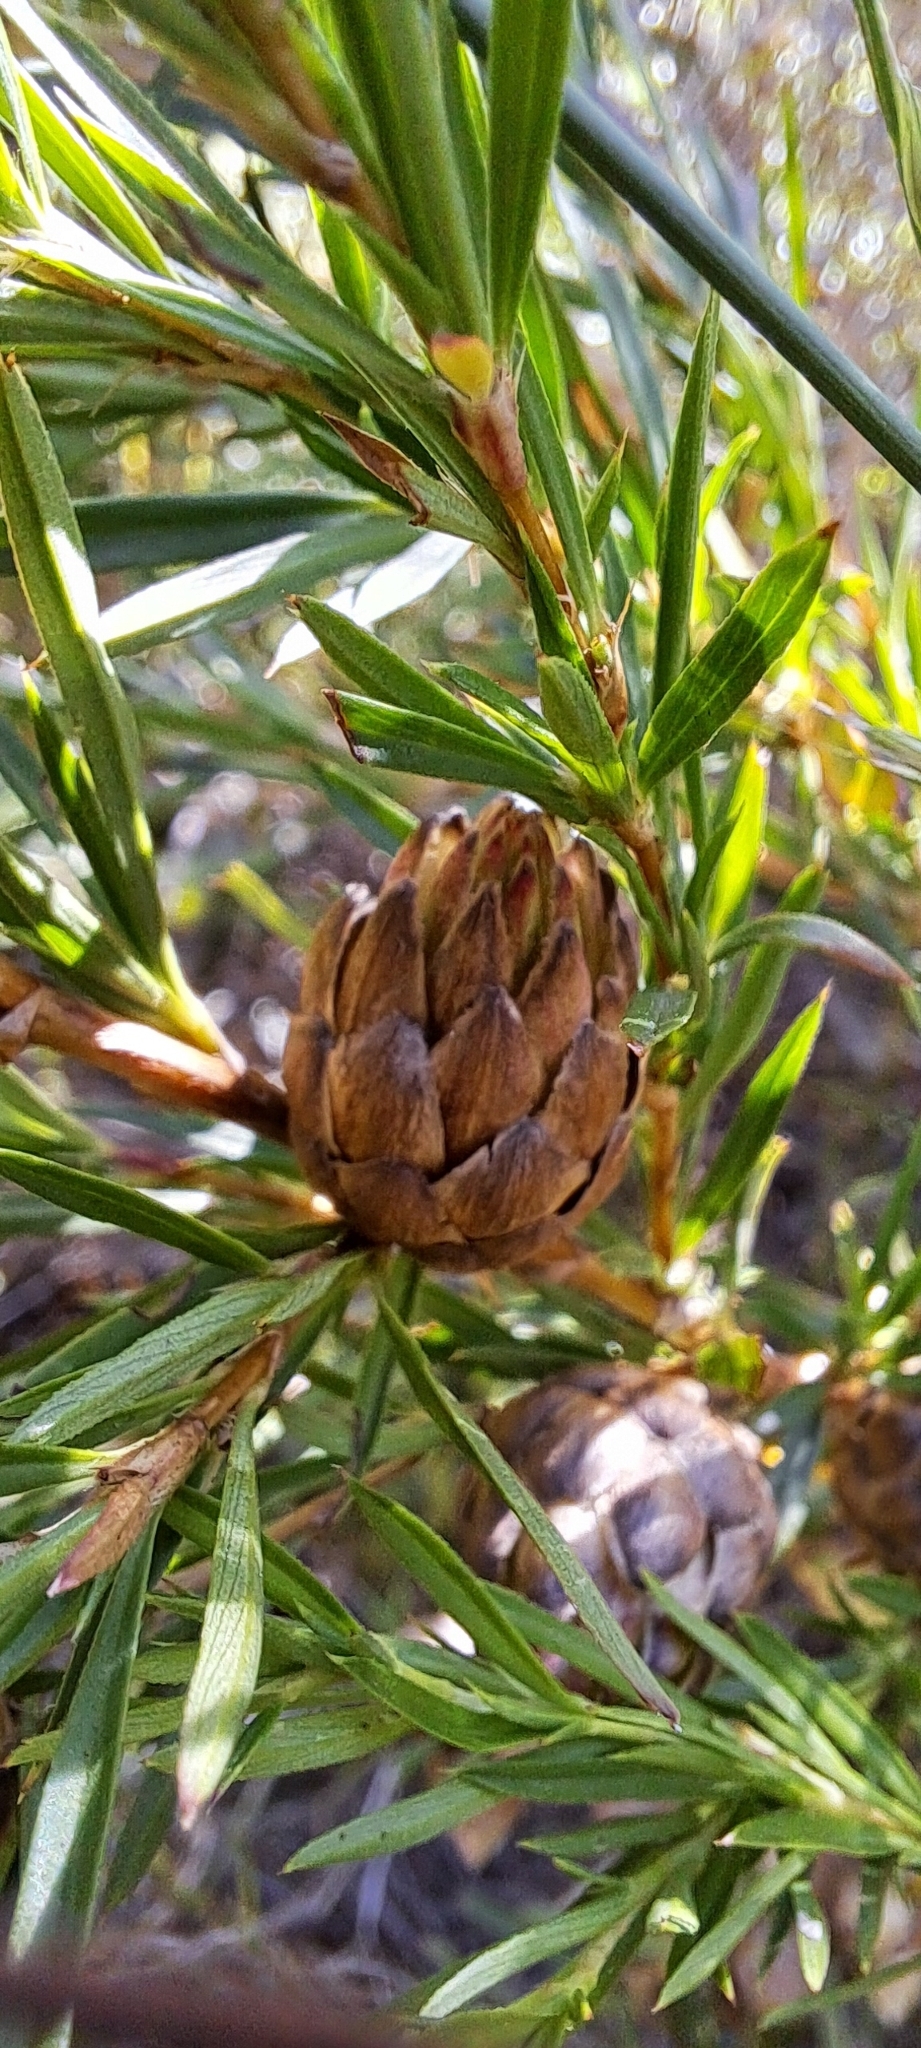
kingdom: Plantae
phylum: Tracheophyta
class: Magnoliopsida
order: Rosales
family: Rosaceae
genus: Cliffortia
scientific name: Cliffortia strobilifera
